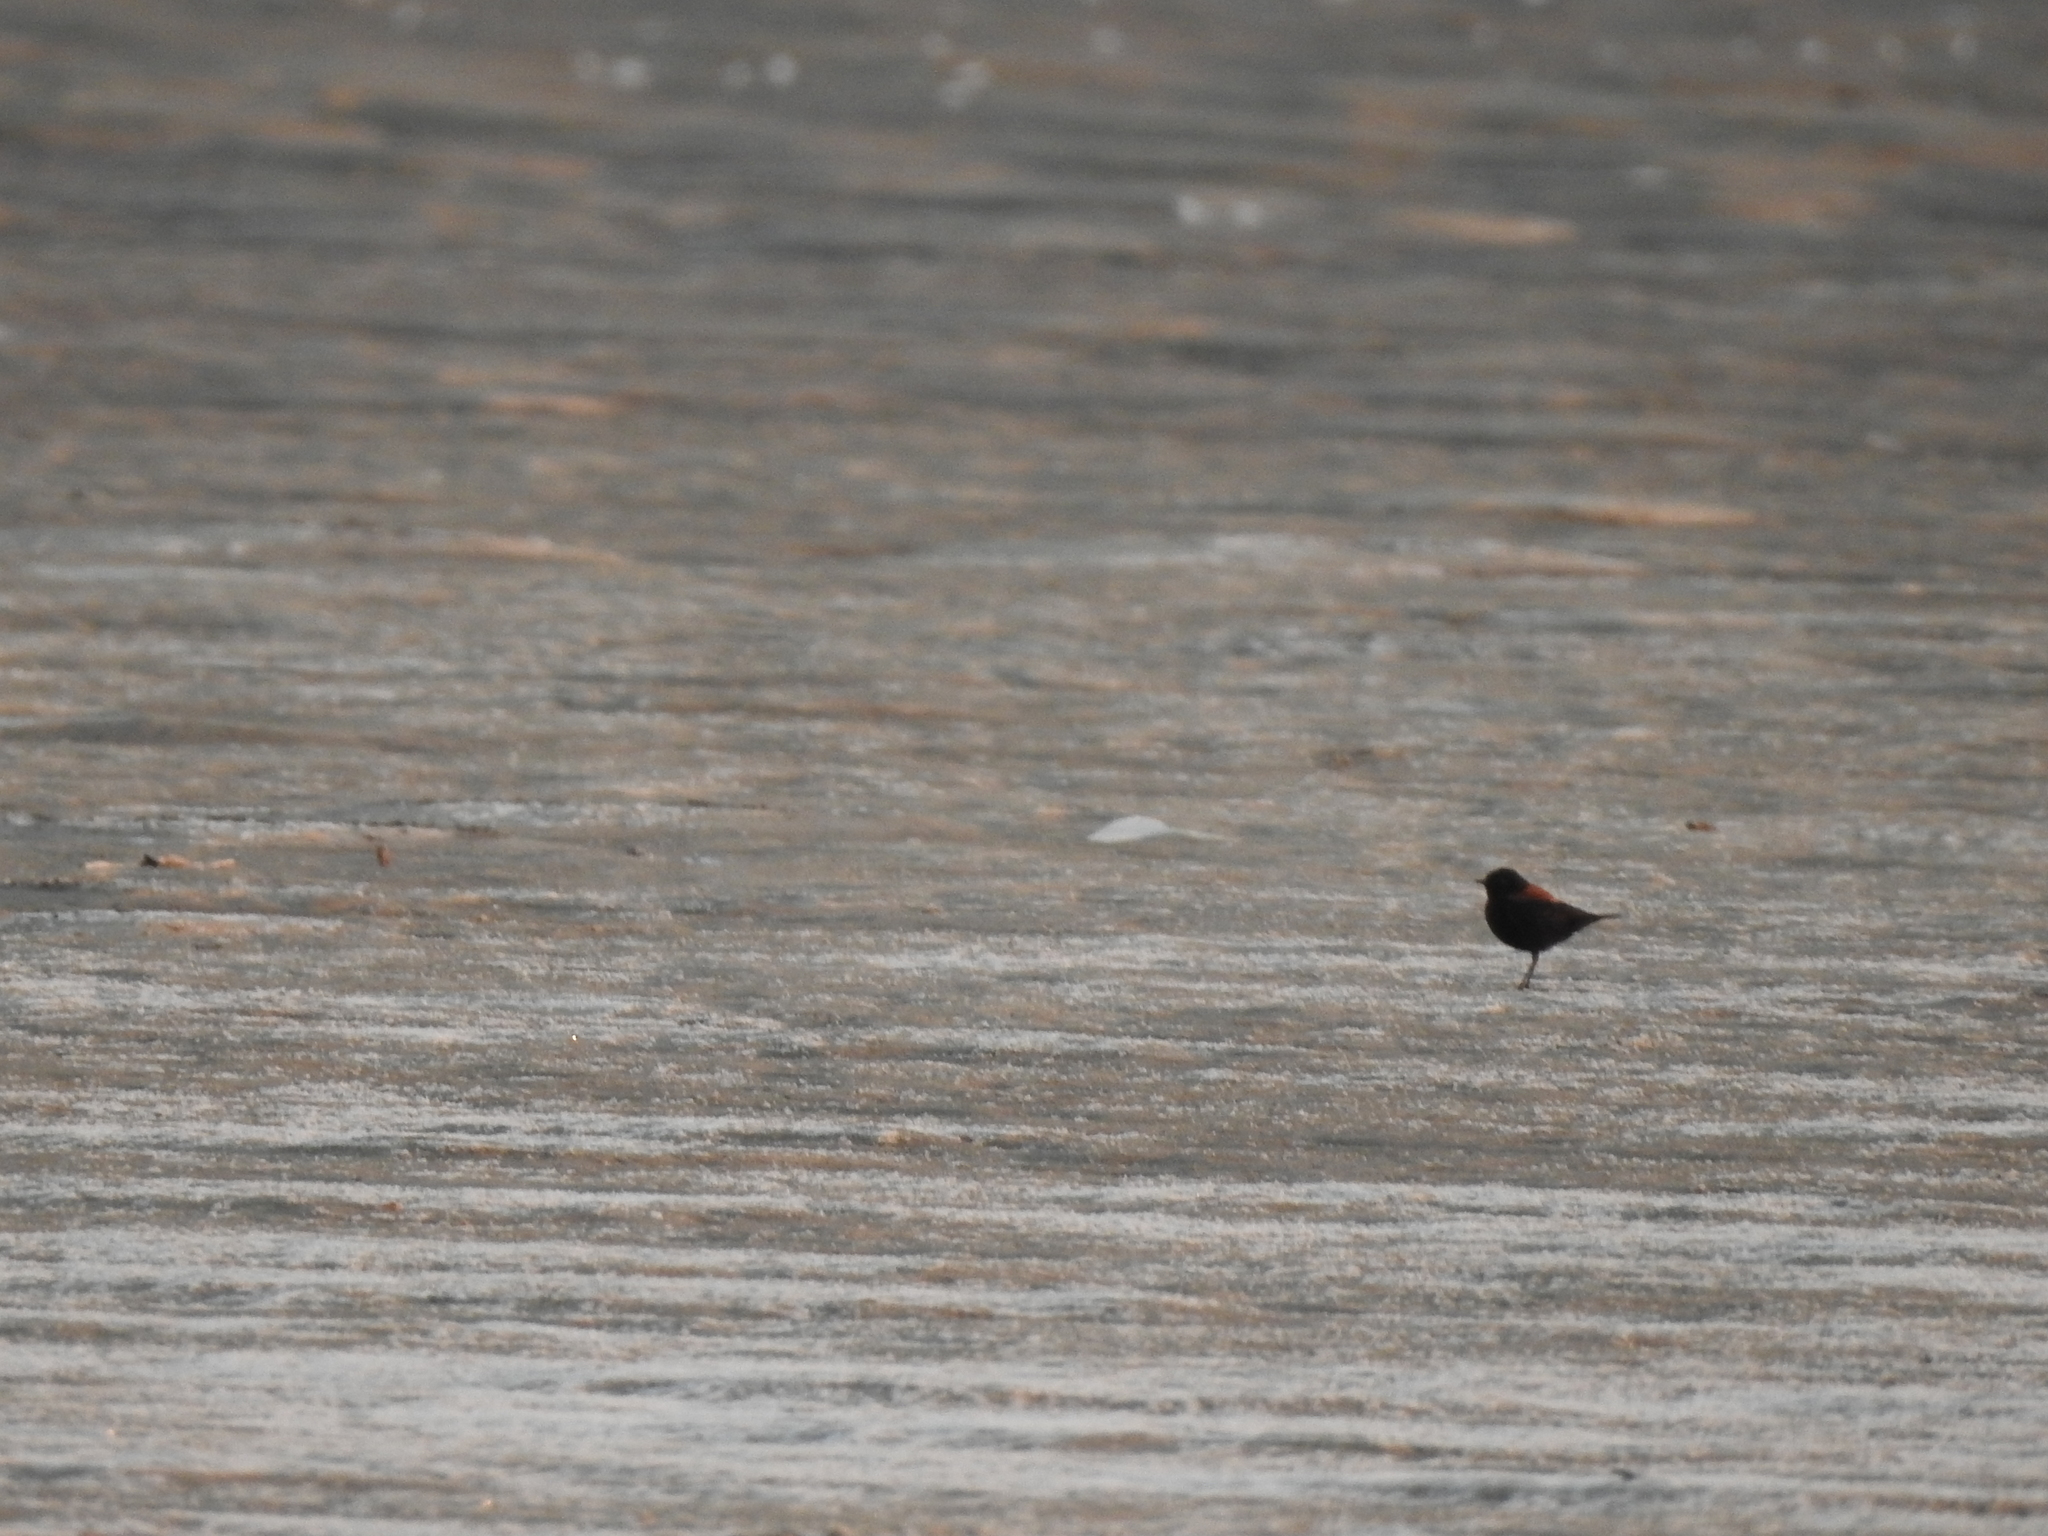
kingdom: Animalia
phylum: Chordata
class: Aves
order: Passeriformes
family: Tyrannidae
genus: Lessonia
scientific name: Lessonia rufa
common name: Austral negrito
